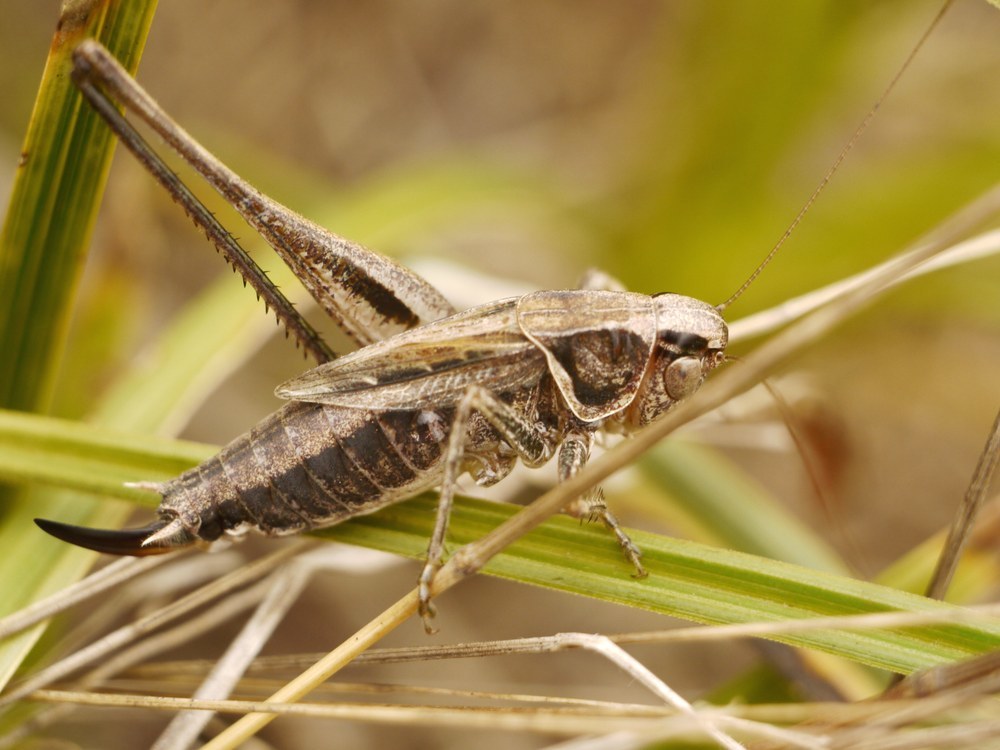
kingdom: Animalia
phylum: Arthropoda
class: Insecta
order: Orthoptera
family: Tettigoniidae
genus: Tessellana
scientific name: Tessellana veyseli
